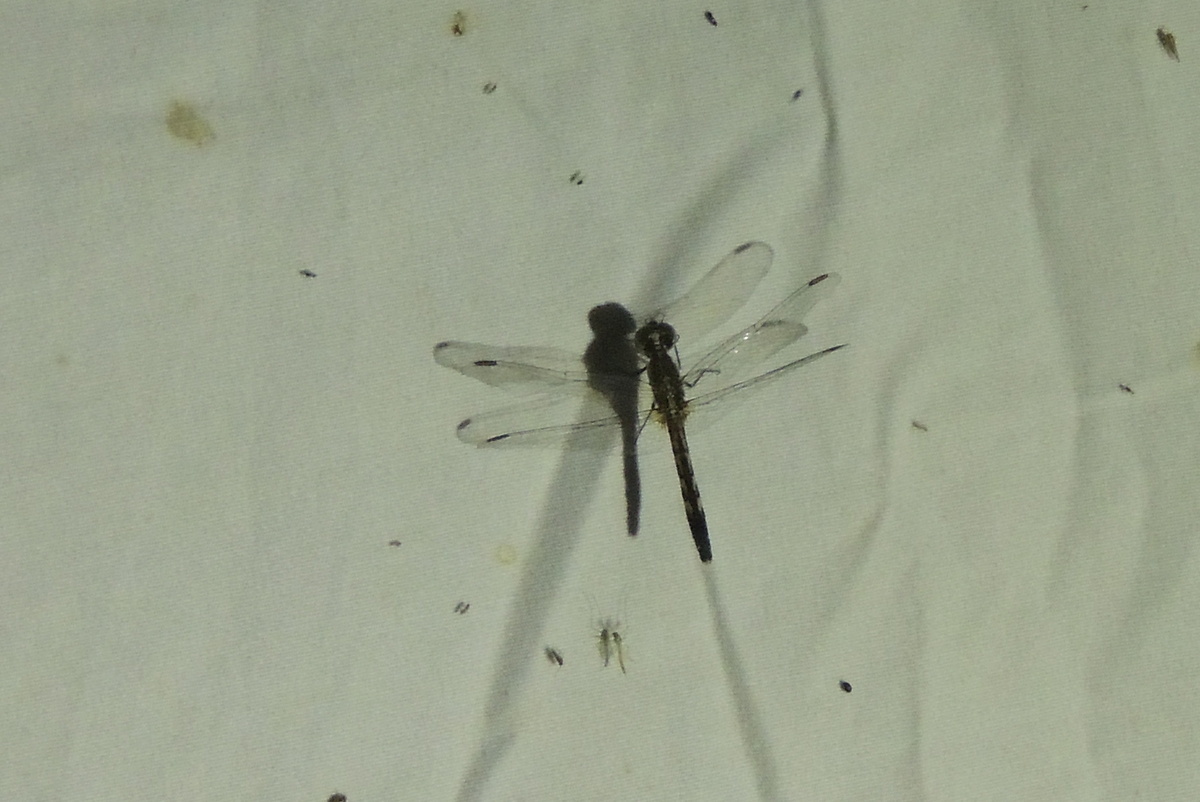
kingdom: Animalia
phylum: Arthropoda
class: Insecta
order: Odonata
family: Libellulidae
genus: Erythemis
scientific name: Erythemis simplicicollis
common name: Eastern pondhawk
